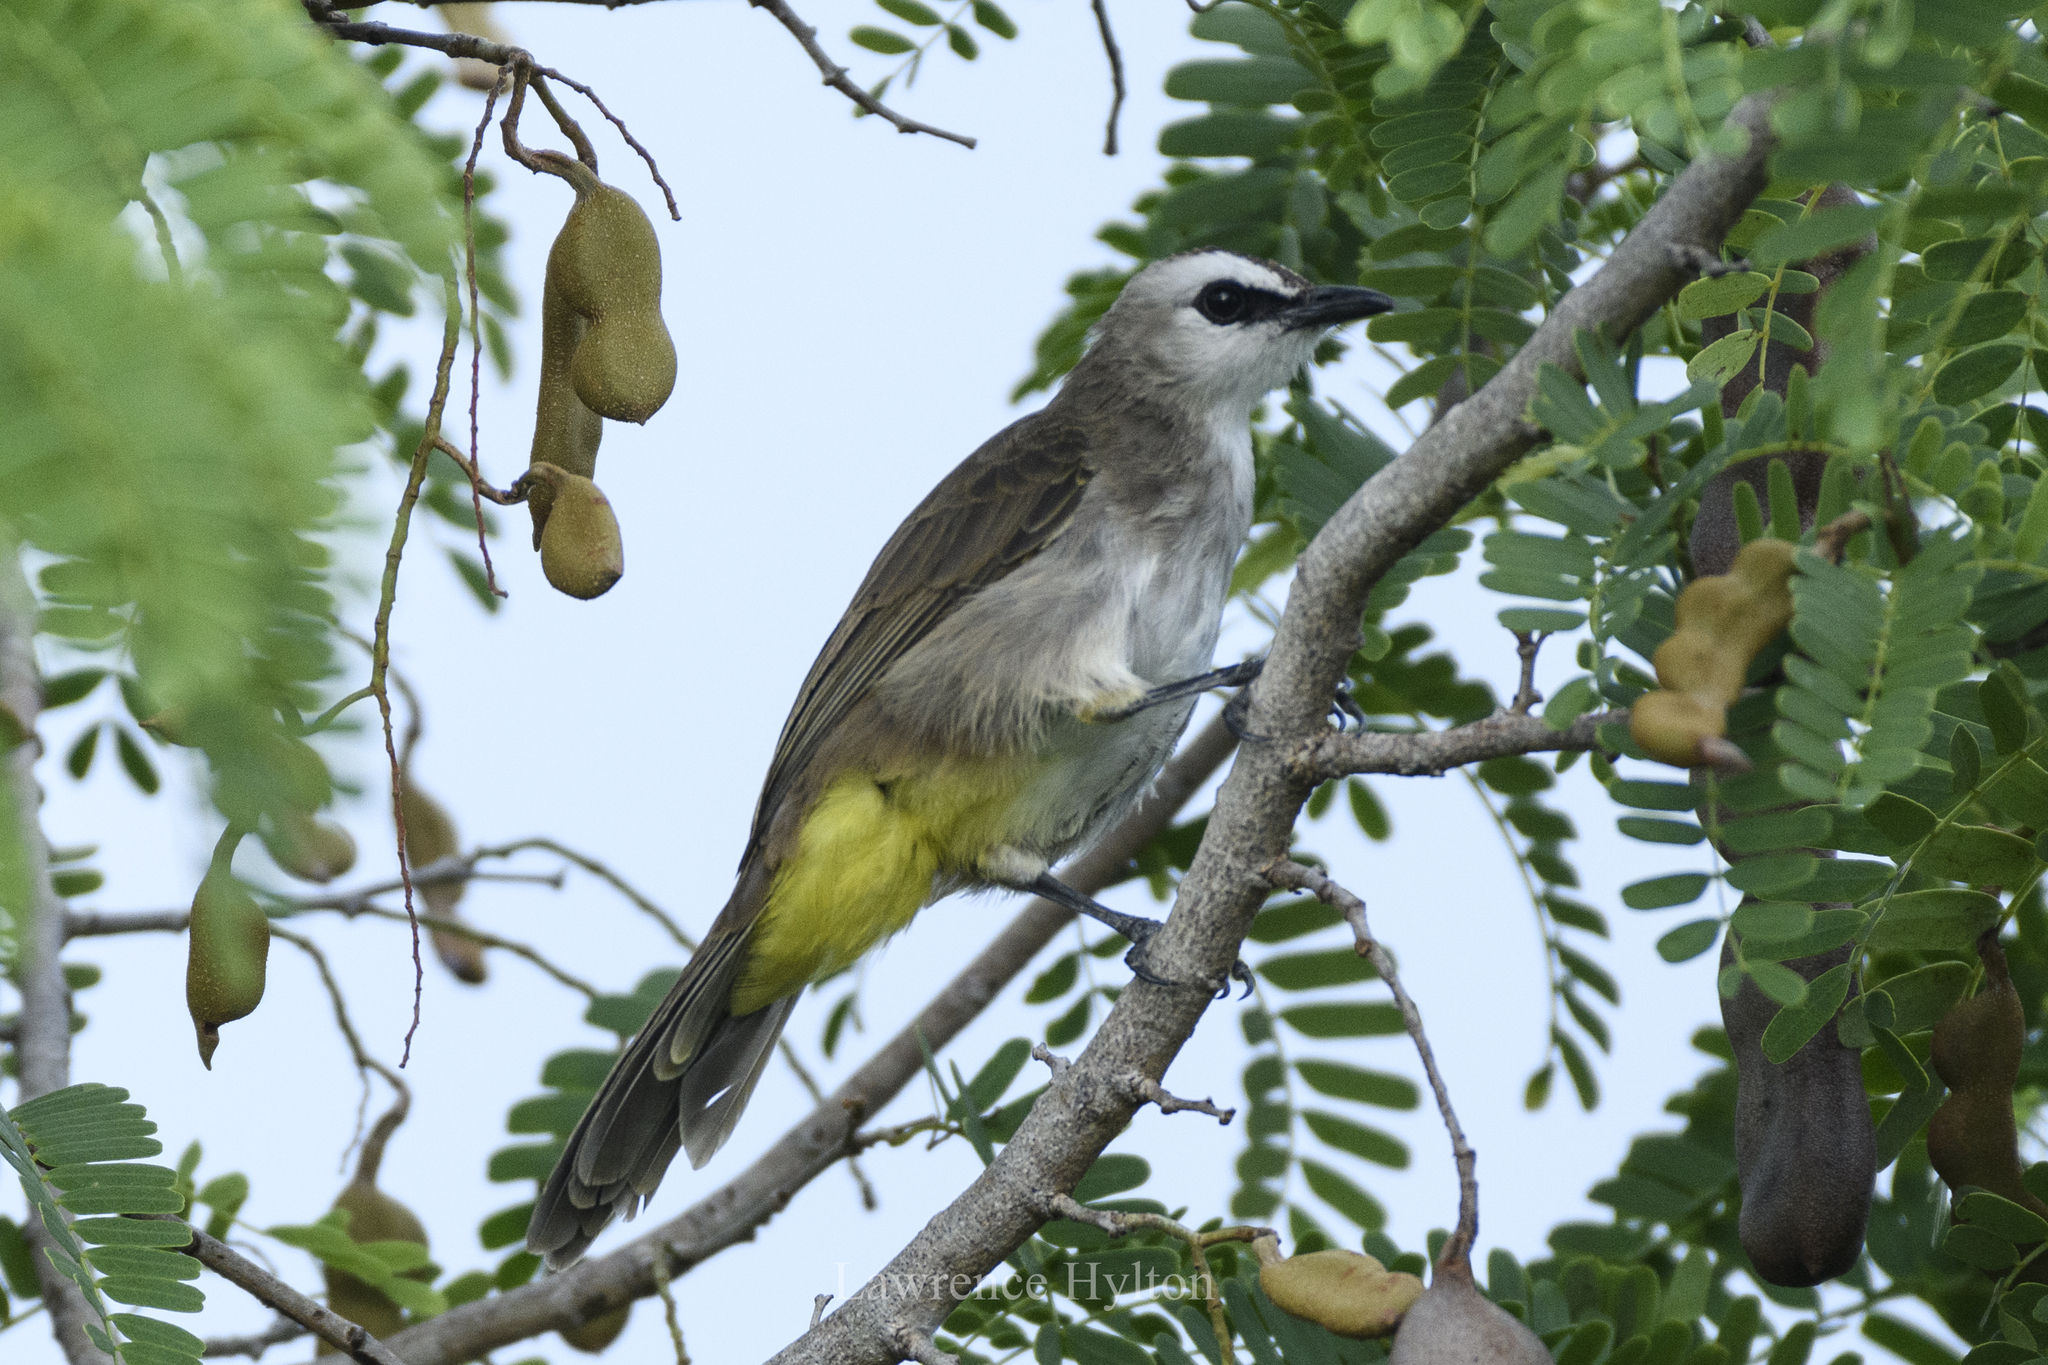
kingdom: Animalia
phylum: Chordata
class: Aves
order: Passeriformes
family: Pycnonotidae
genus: Pycnonotus
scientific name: Pycnonotus goiavier
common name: Yellow-vented bulbul
